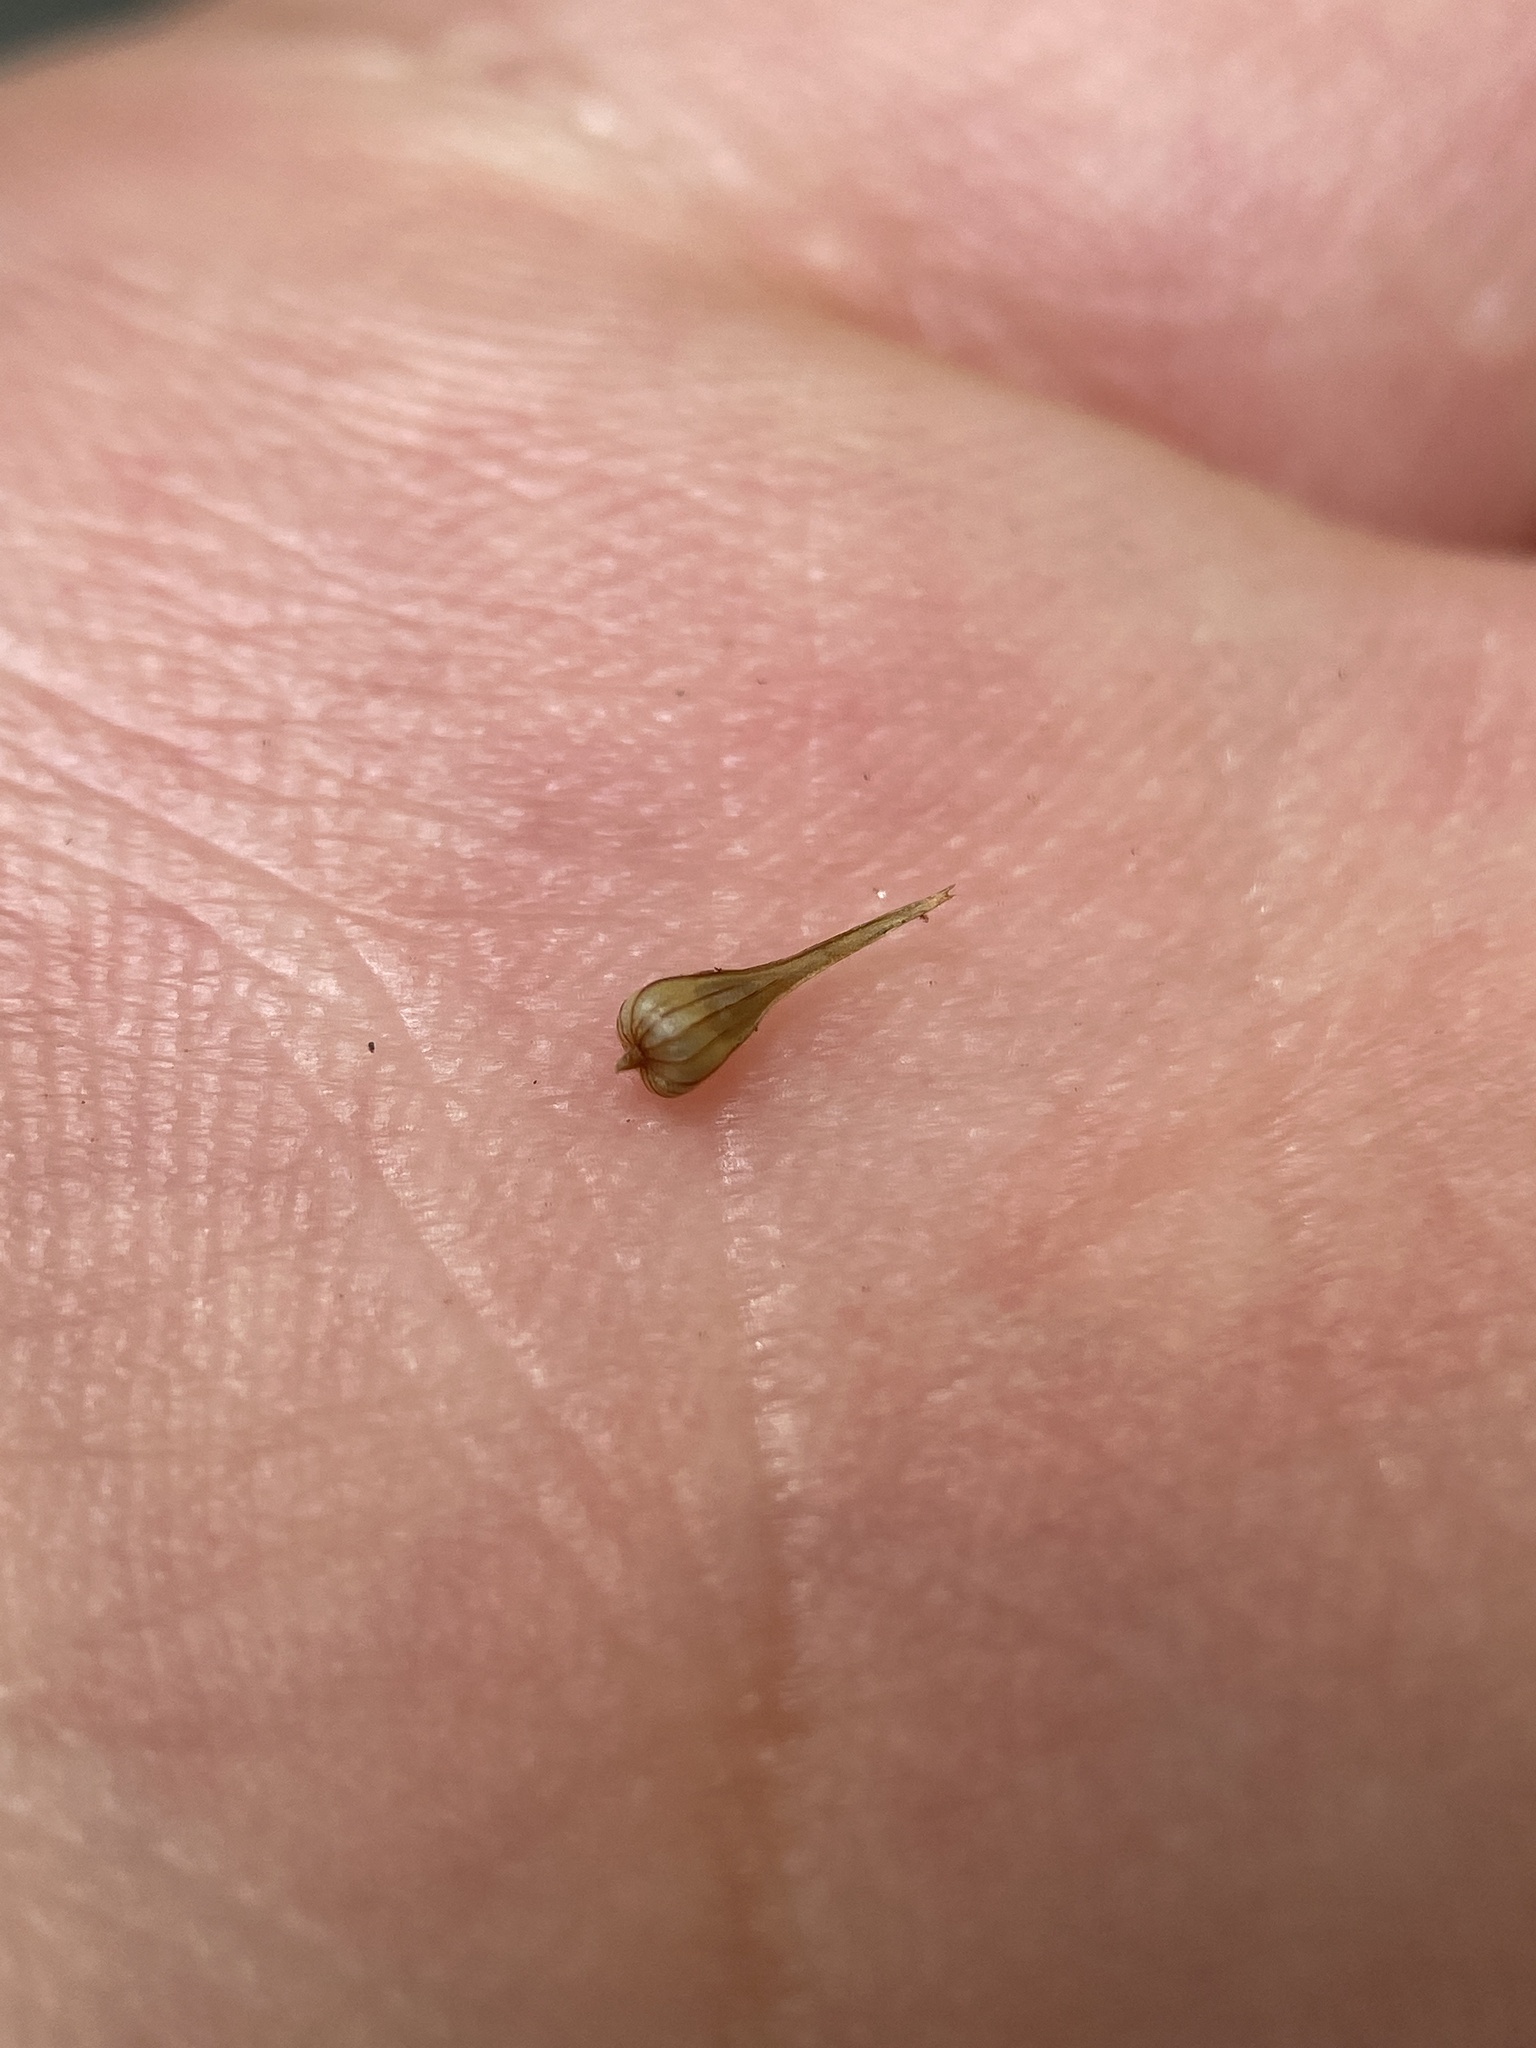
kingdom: Plantae
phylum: Tracheophyta
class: Liliopsida
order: Poales
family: Cyperaceae
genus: Carex
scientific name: Carex laevivaginata
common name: Smooth-sheathed fox sedge
